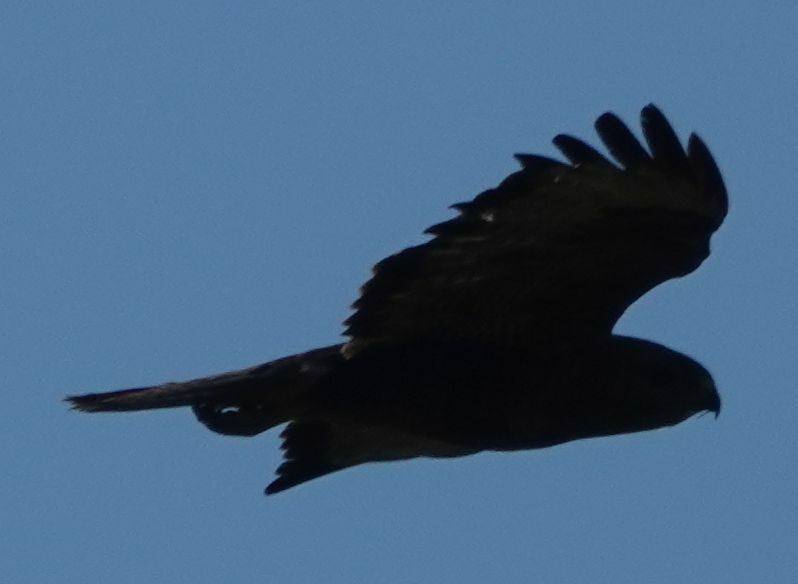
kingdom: Animalia
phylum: Chordata
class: Aves
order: Accipitriformes
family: Accipitridae
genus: Buteo
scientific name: Buteo buteo
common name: Common buzzard
